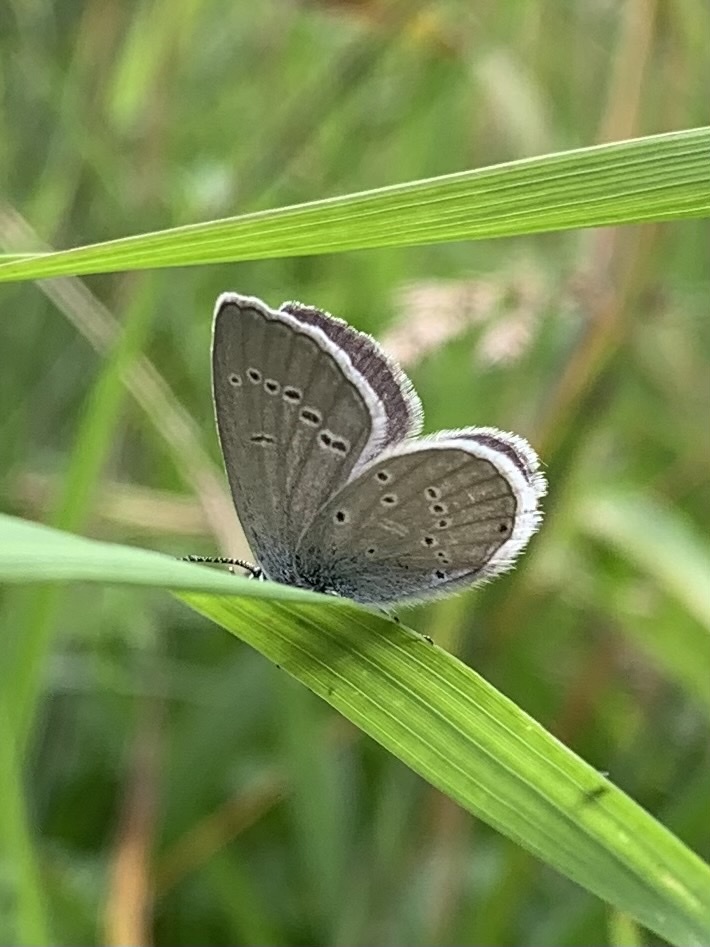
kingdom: Animalia
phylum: Arthropoda
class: Insecta
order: Lepidoptera
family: Lycaenidae
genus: Cupido
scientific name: Cupido minimus
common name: Small blue
